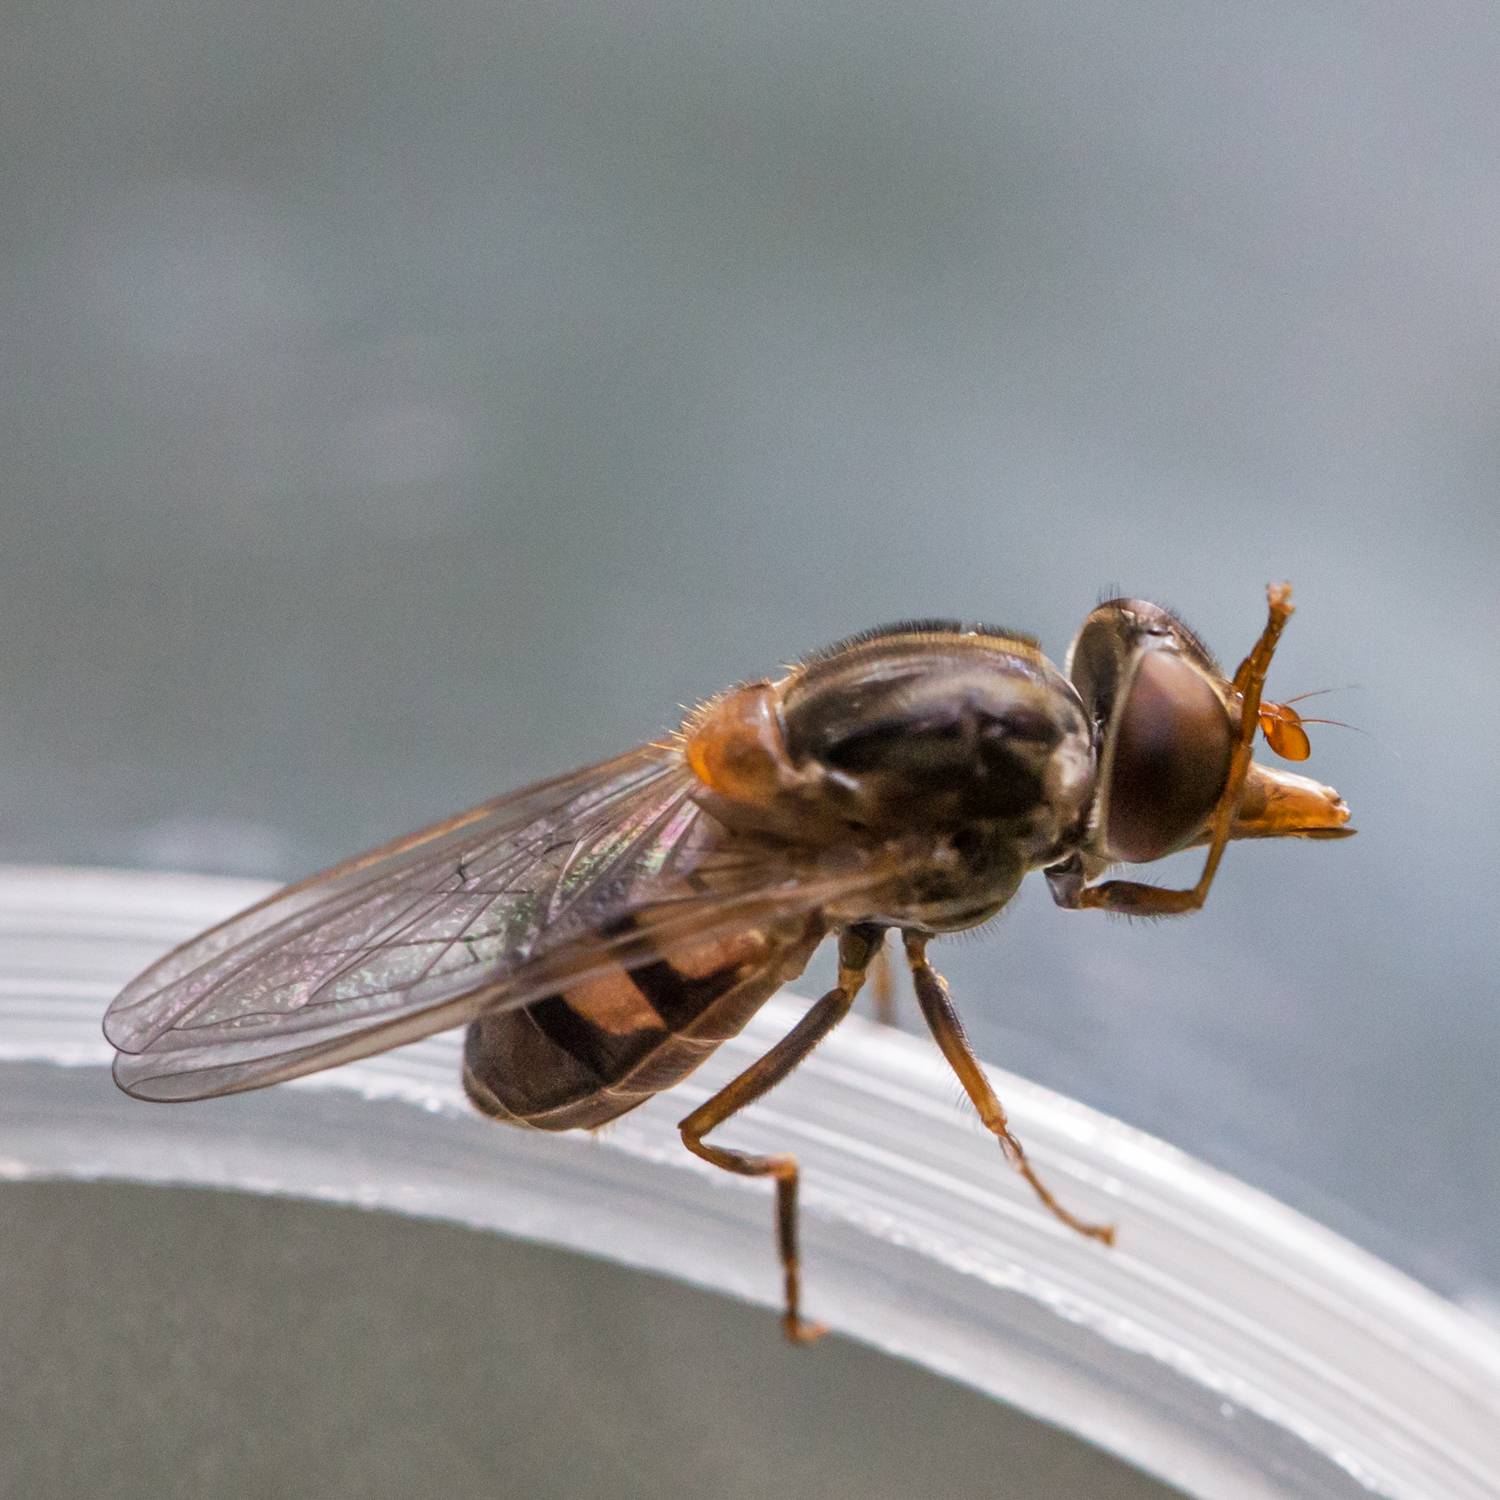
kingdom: Animalia
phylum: Arthropoda
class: Insecta
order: Diptera
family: Syrphidae
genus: Rhingia
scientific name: Rhingia nasica
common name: American snout fly
